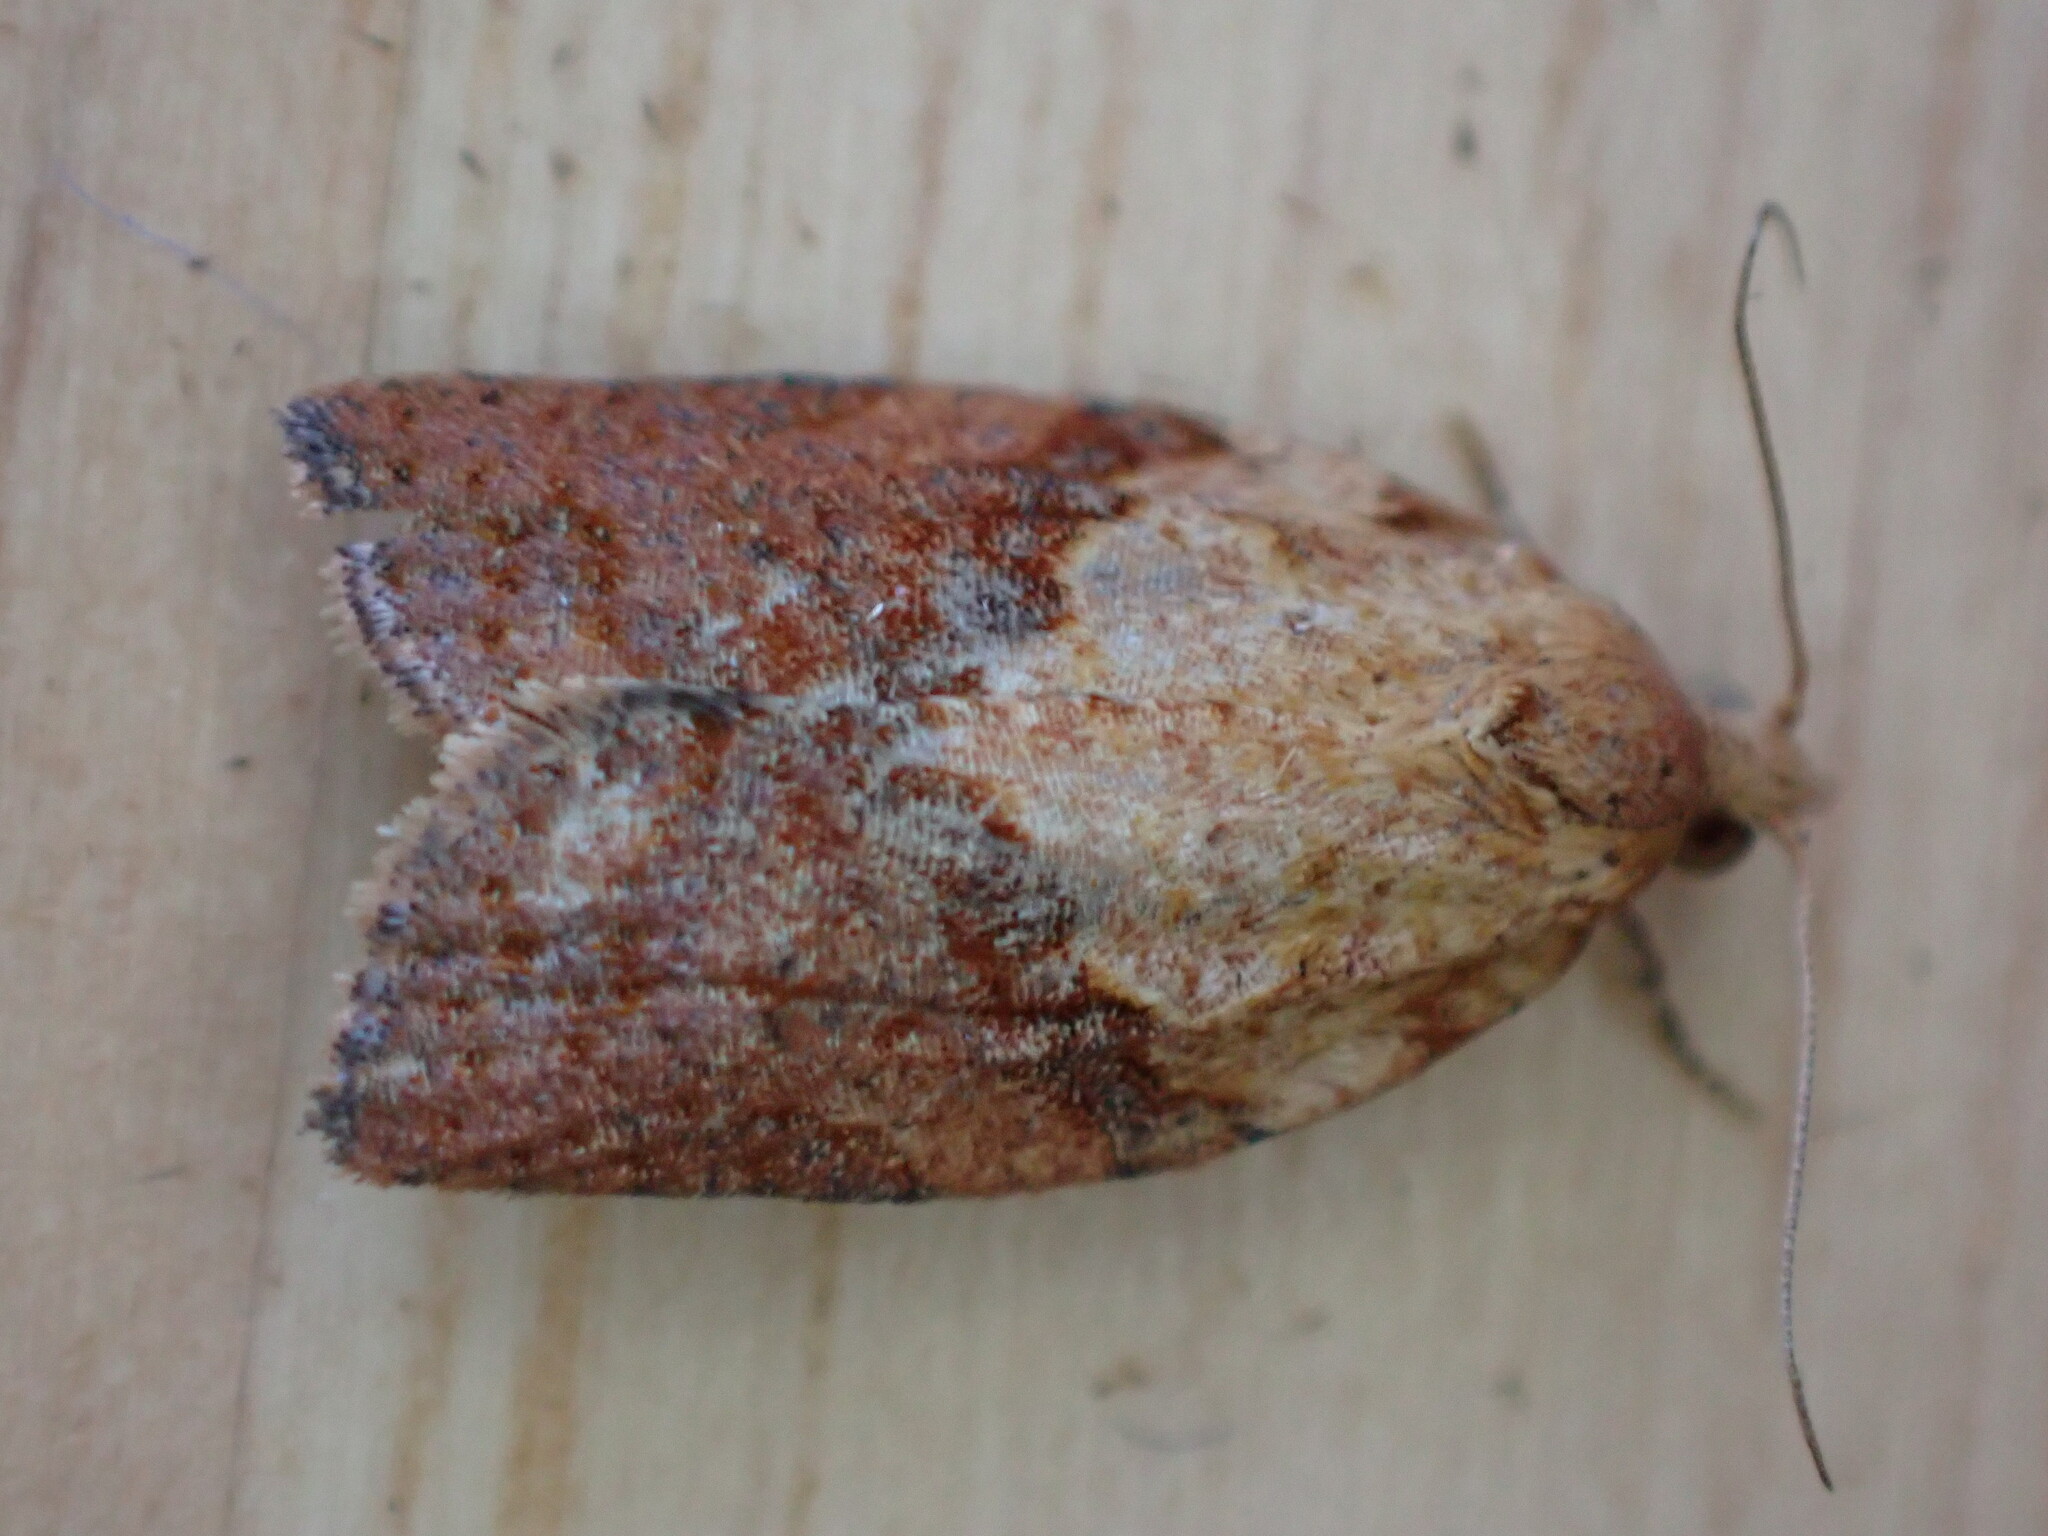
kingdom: Animalia
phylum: Arthropoda
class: Insecta
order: Lepidoptera
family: Tortricidae
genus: Epiphyas
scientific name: Epiphyas postvittana
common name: Light brown apple moth
